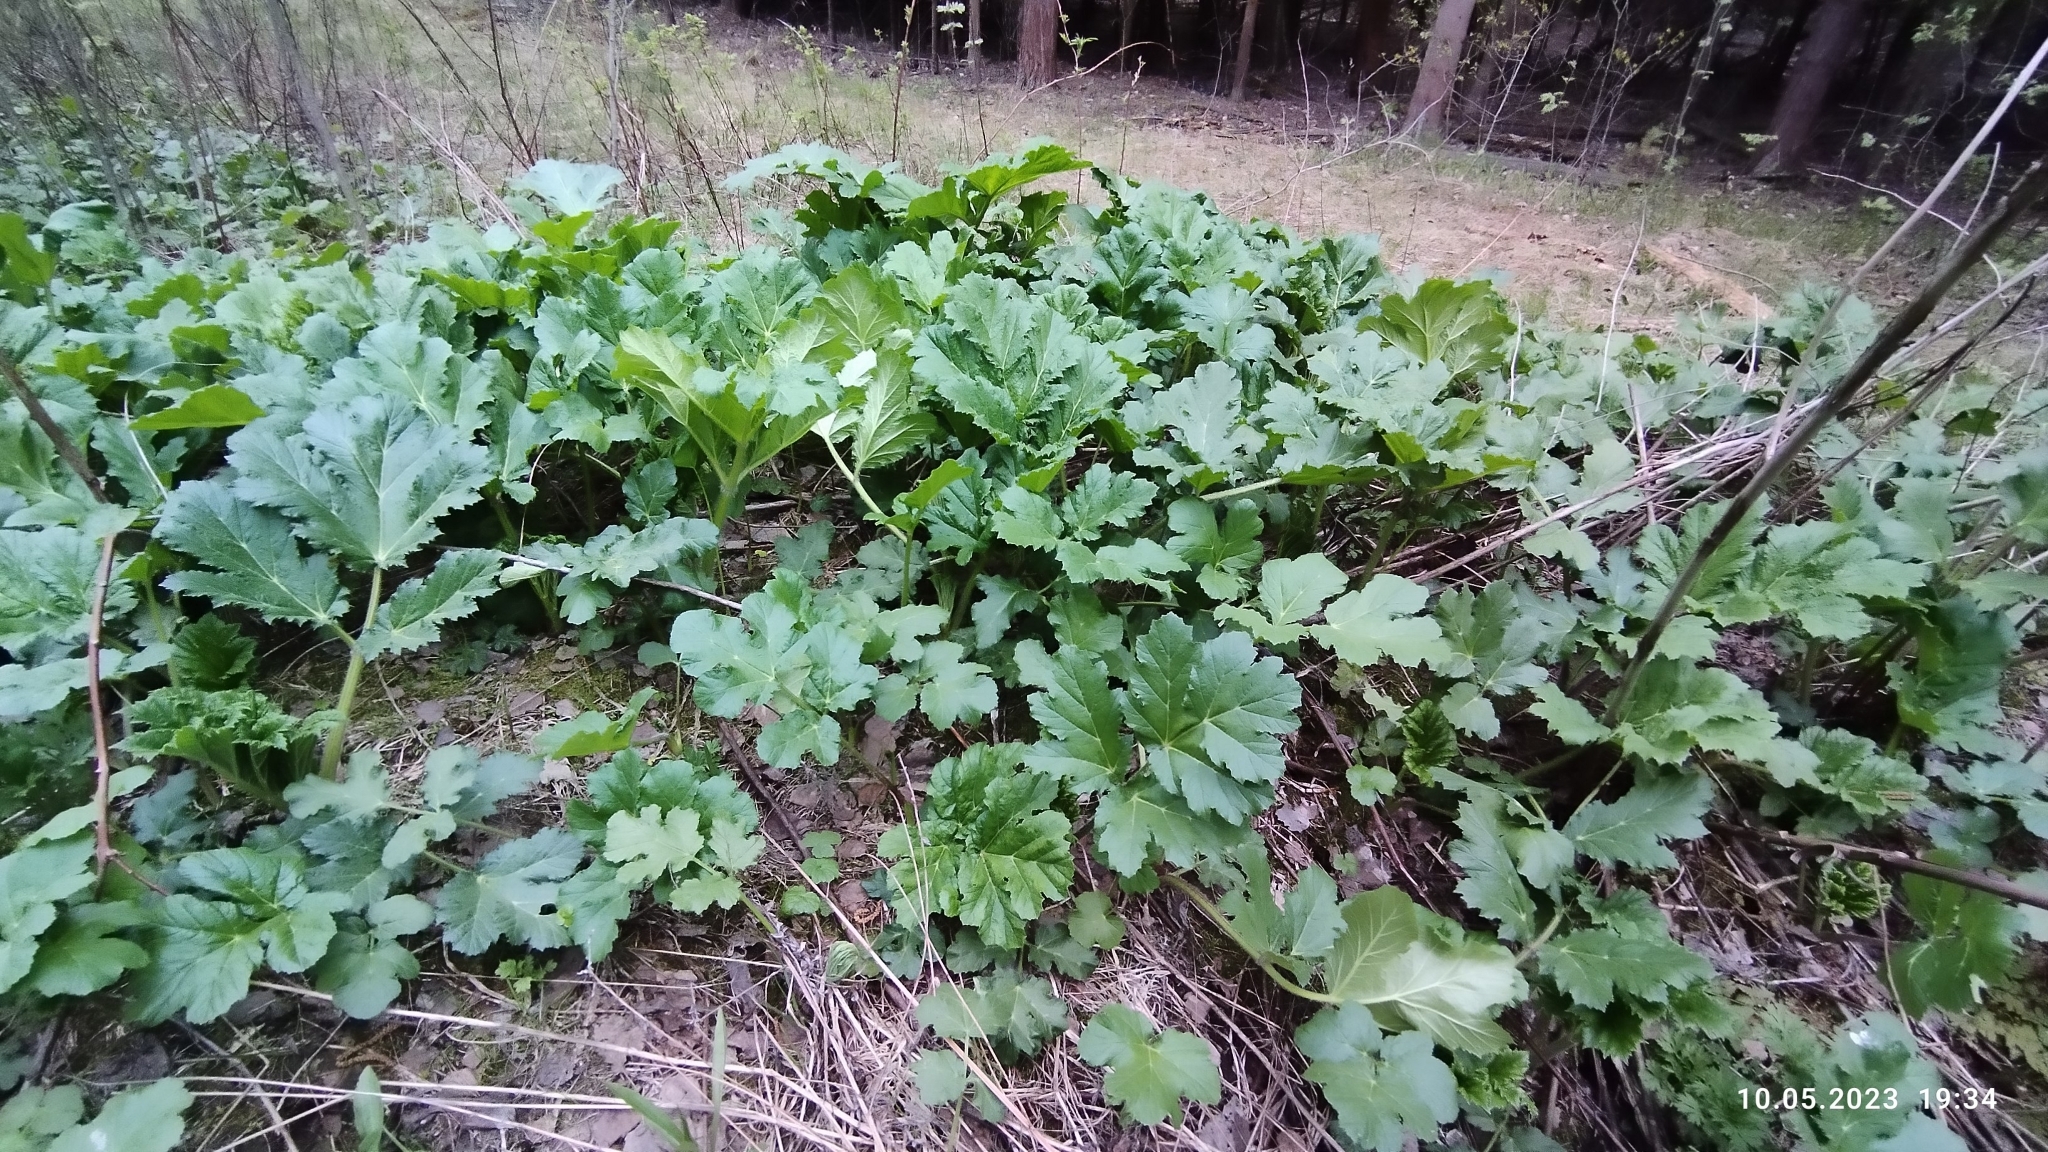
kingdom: Plantae
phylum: Tracheophyta
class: Magnoliopsida
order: Apiales
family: Apiaceae
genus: Heracleum
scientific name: Heracleum sosnowskyi
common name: Sosnowsky's hogweed
